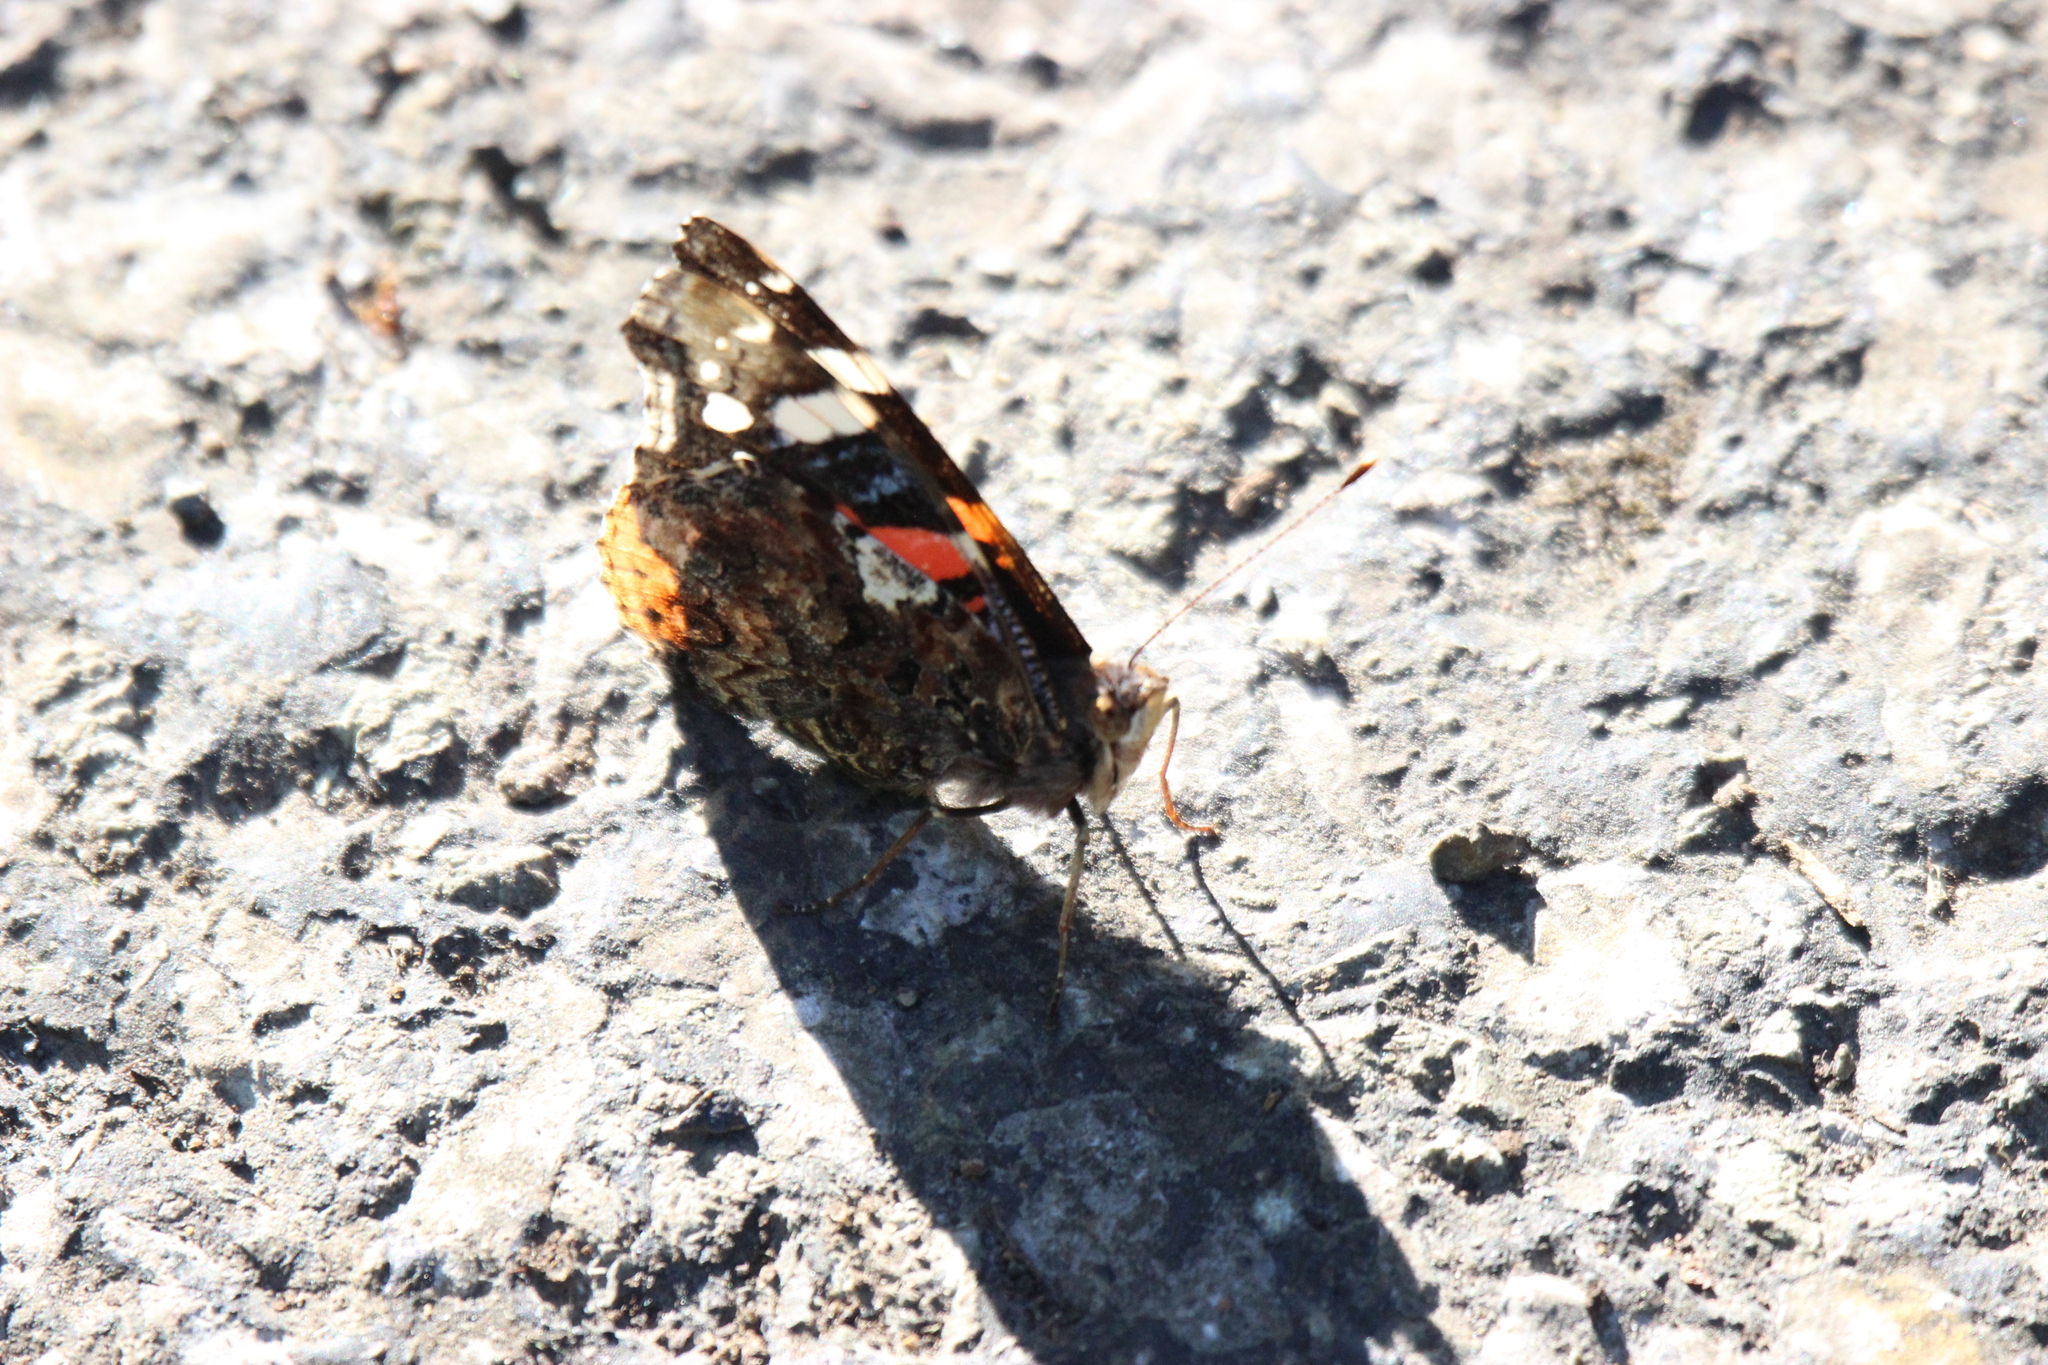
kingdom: Animalia
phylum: Arthropoda
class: Insecta
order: Lepidoptera
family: Nymphalidae
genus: Vanessa
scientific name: Vanessa atalanta
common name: Red admiral
